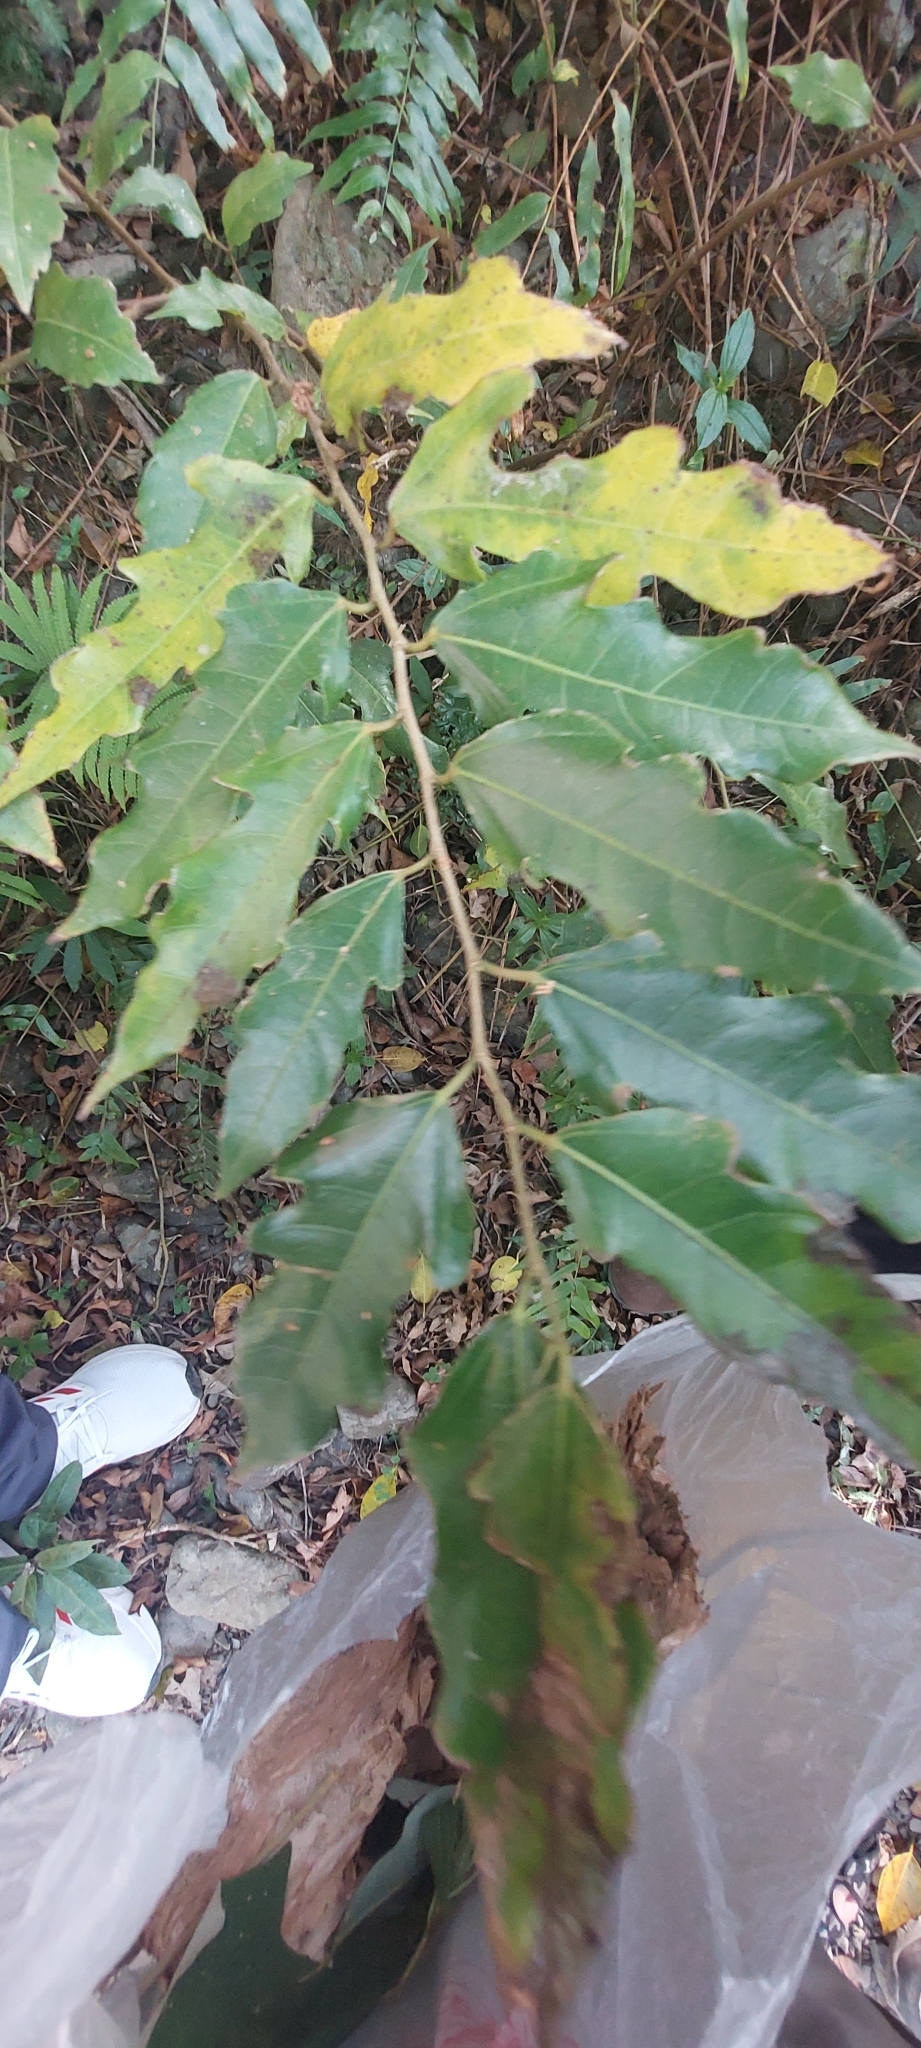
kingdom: Plantae
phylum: Tracheophyta
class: Magnoliopsida
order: Rosales
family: Moraceae
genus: Ficus
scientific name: Ficus ampelos
